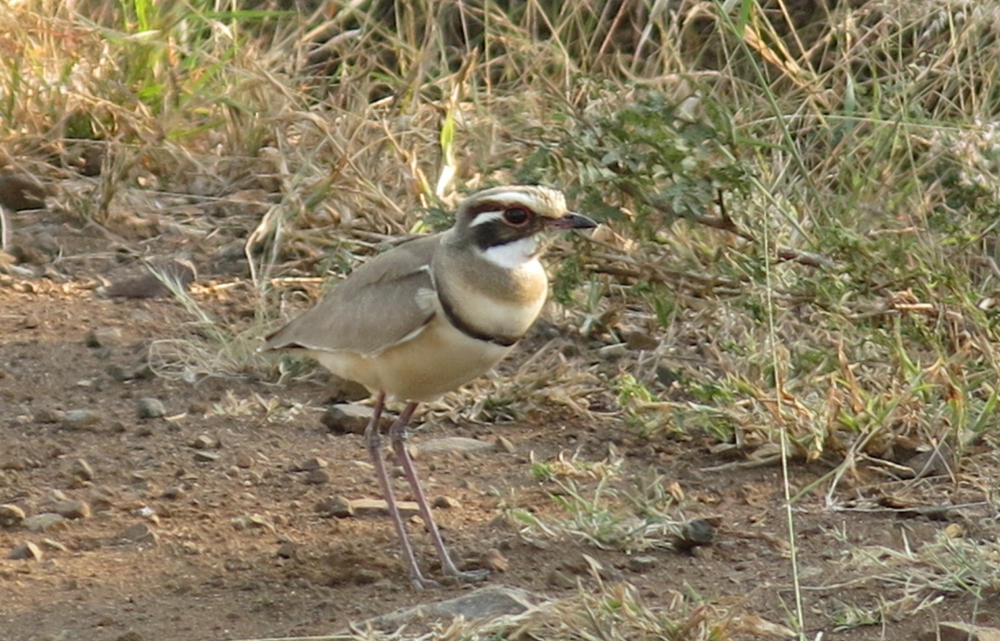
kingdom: Animalia
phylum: Chordata
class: Aves
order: Charadriiformes
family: Glareolidae
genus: Rhinoptilus
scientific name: Rhinoptilus chalcopterus
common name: Bronze-winged courser
